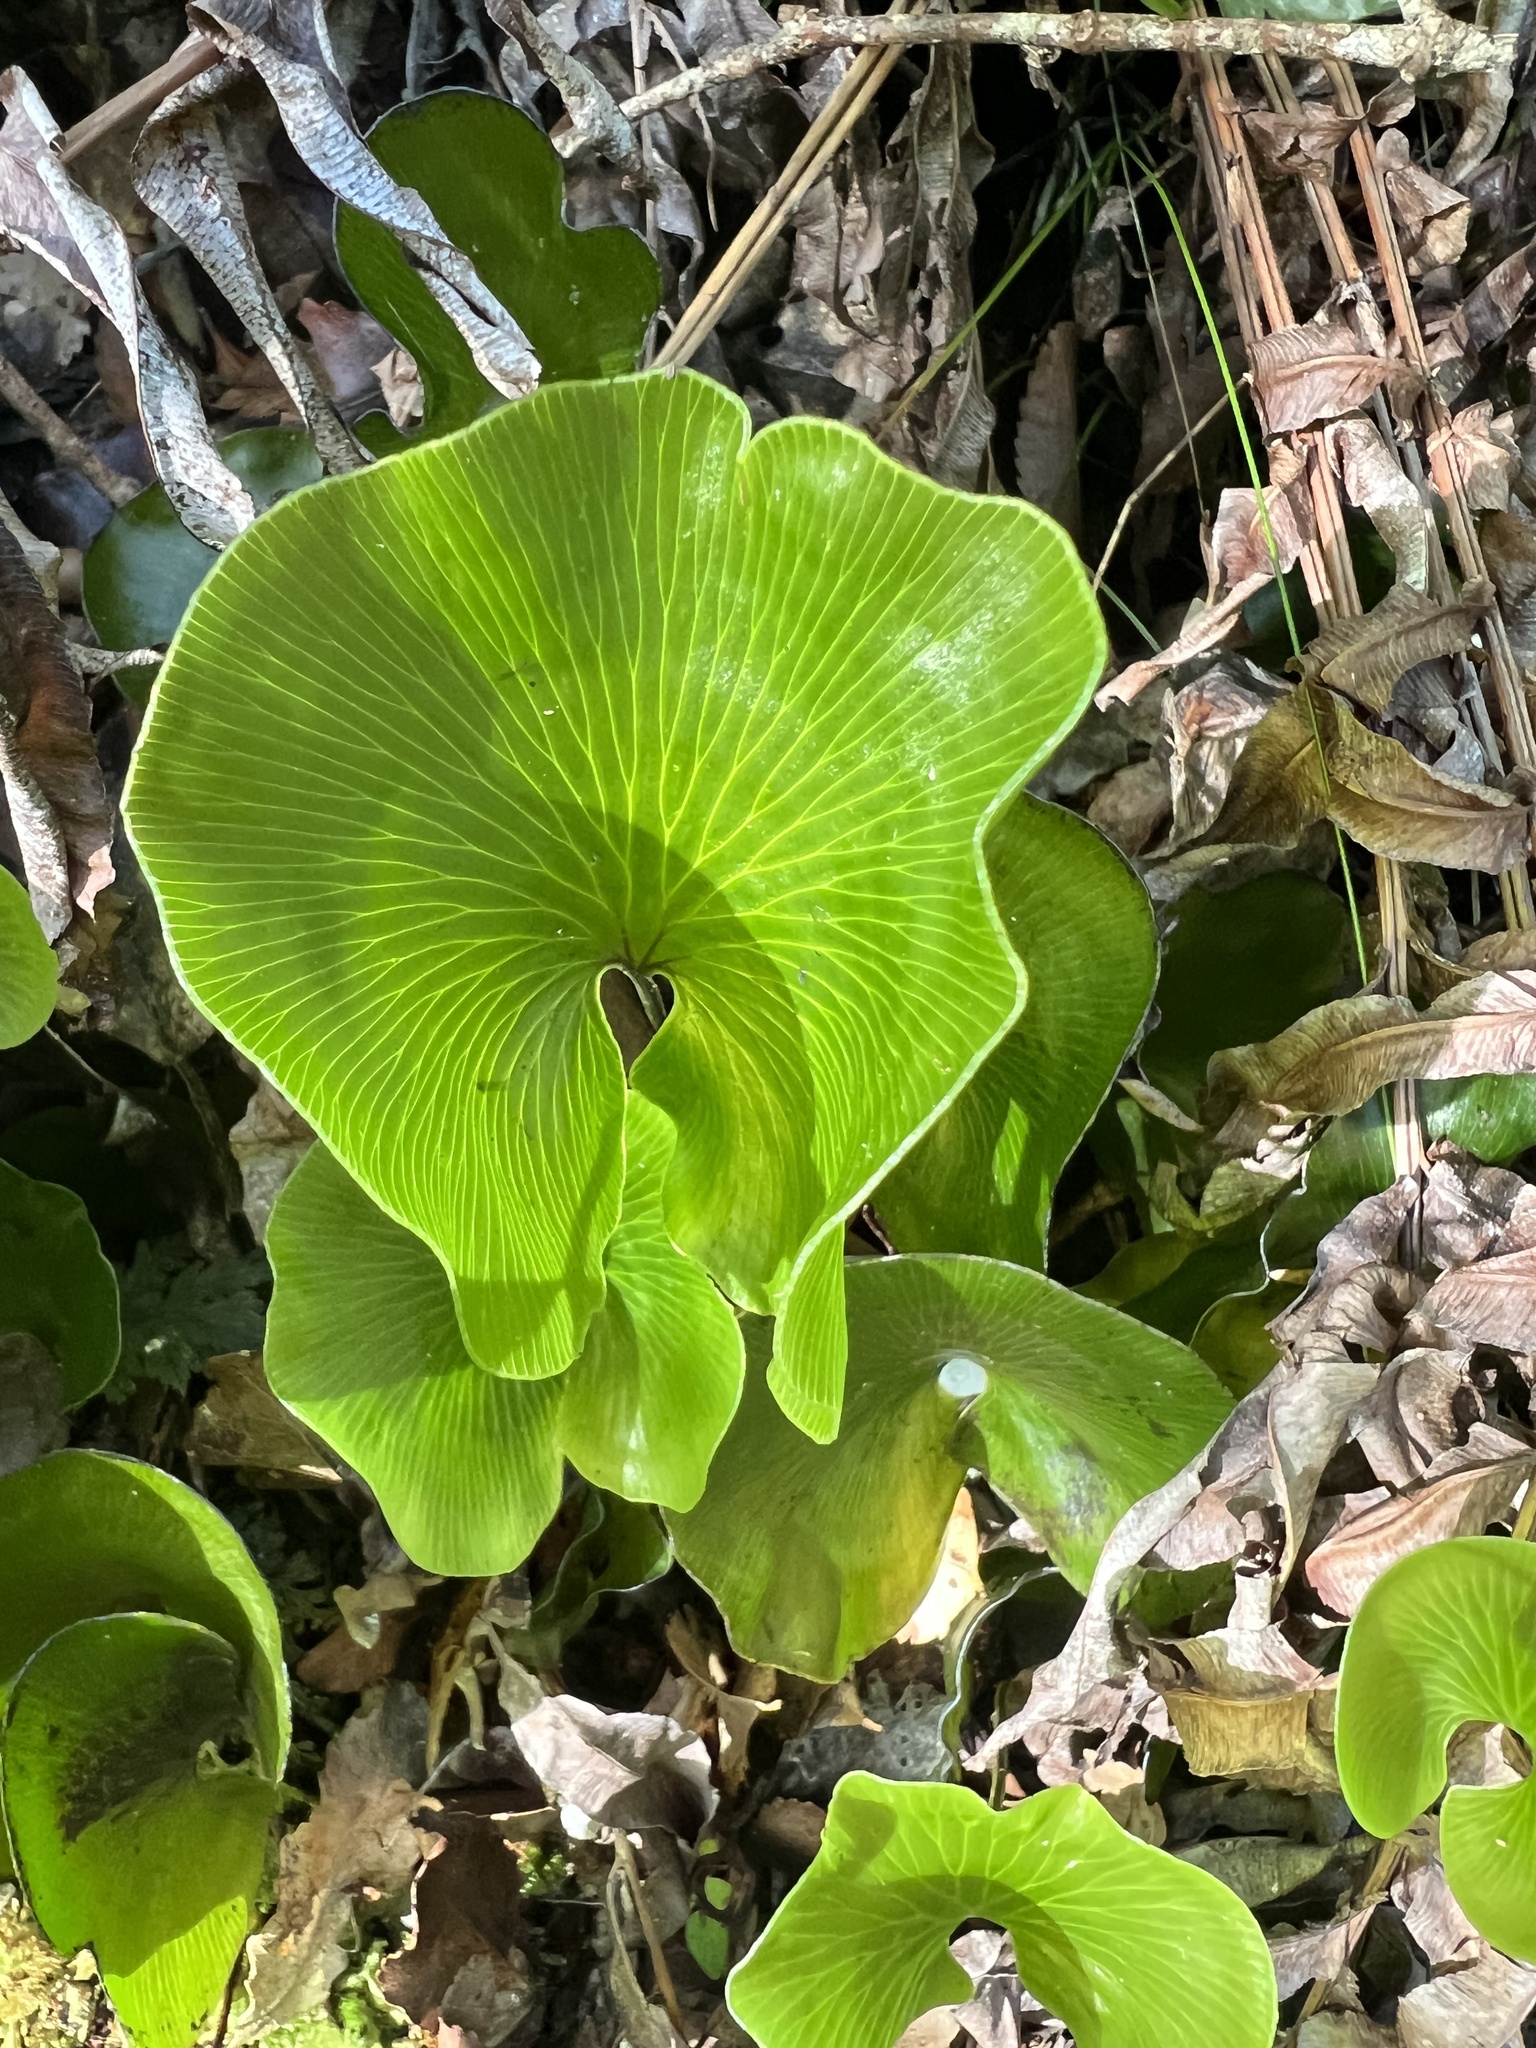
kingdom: Plantae
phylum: Tracheophyta
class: Polypodiopsida
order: Hymenophyllales
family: Hymenophyllaceae
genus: Hymenophyllum
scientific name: Hymenophyllum nephrophyllum
